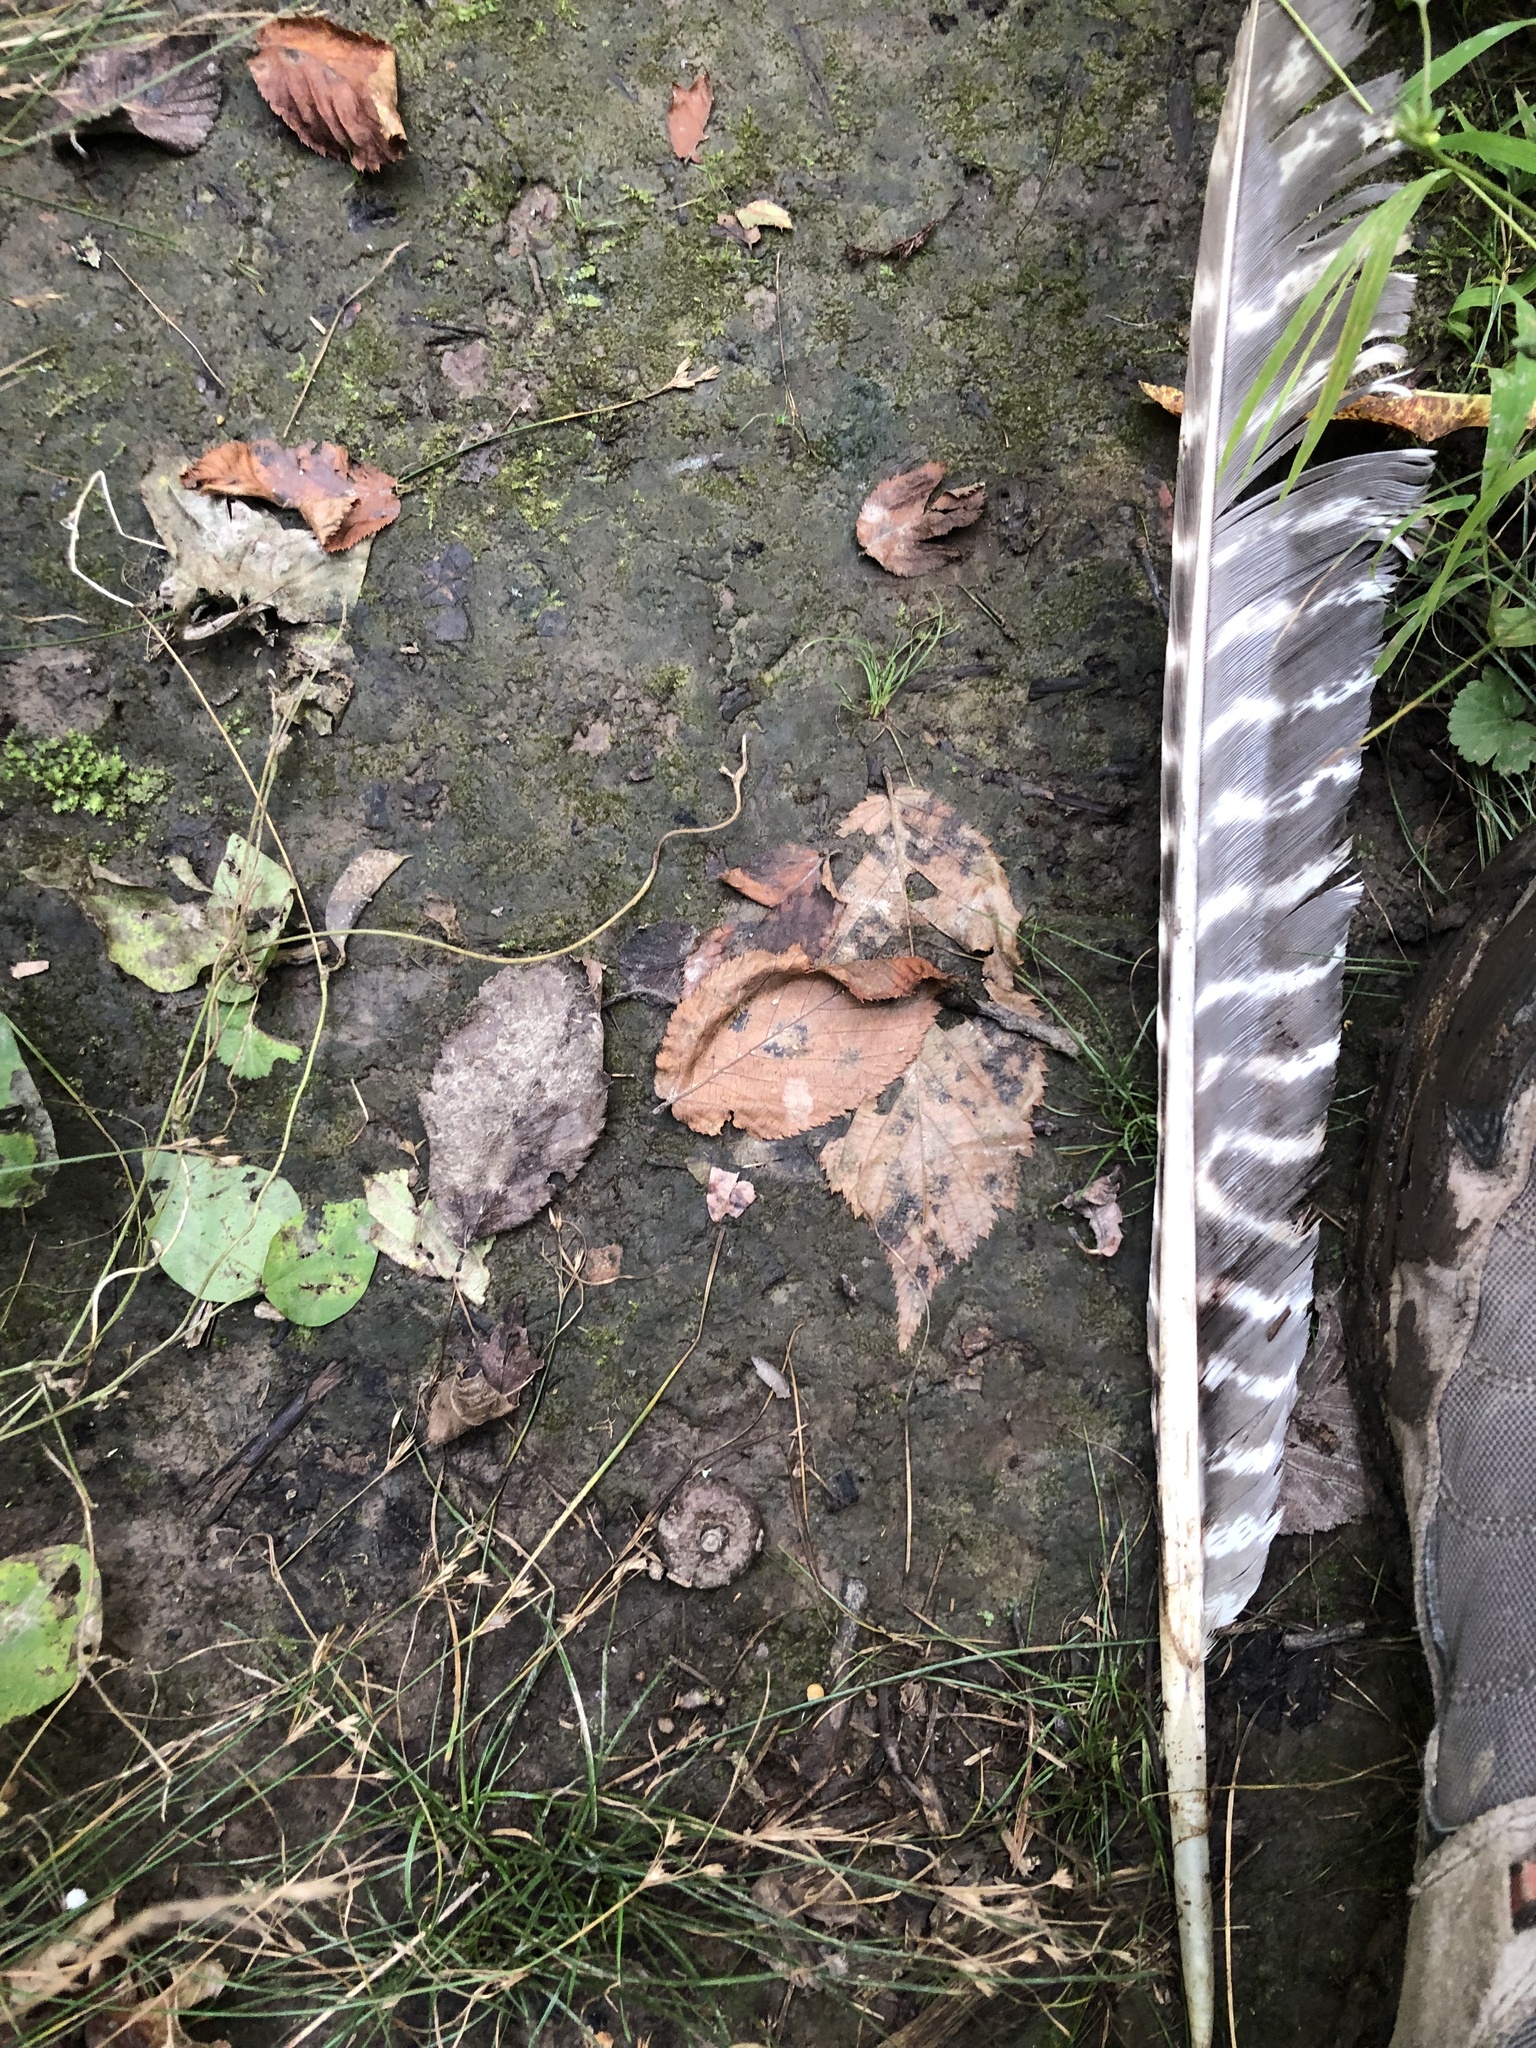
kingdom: Animalia
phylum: Chordata
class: Aves
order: Galliformes
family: Phasianidae
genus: Meleagris
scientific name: Meleagris gallopavo
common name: Wild turkey
